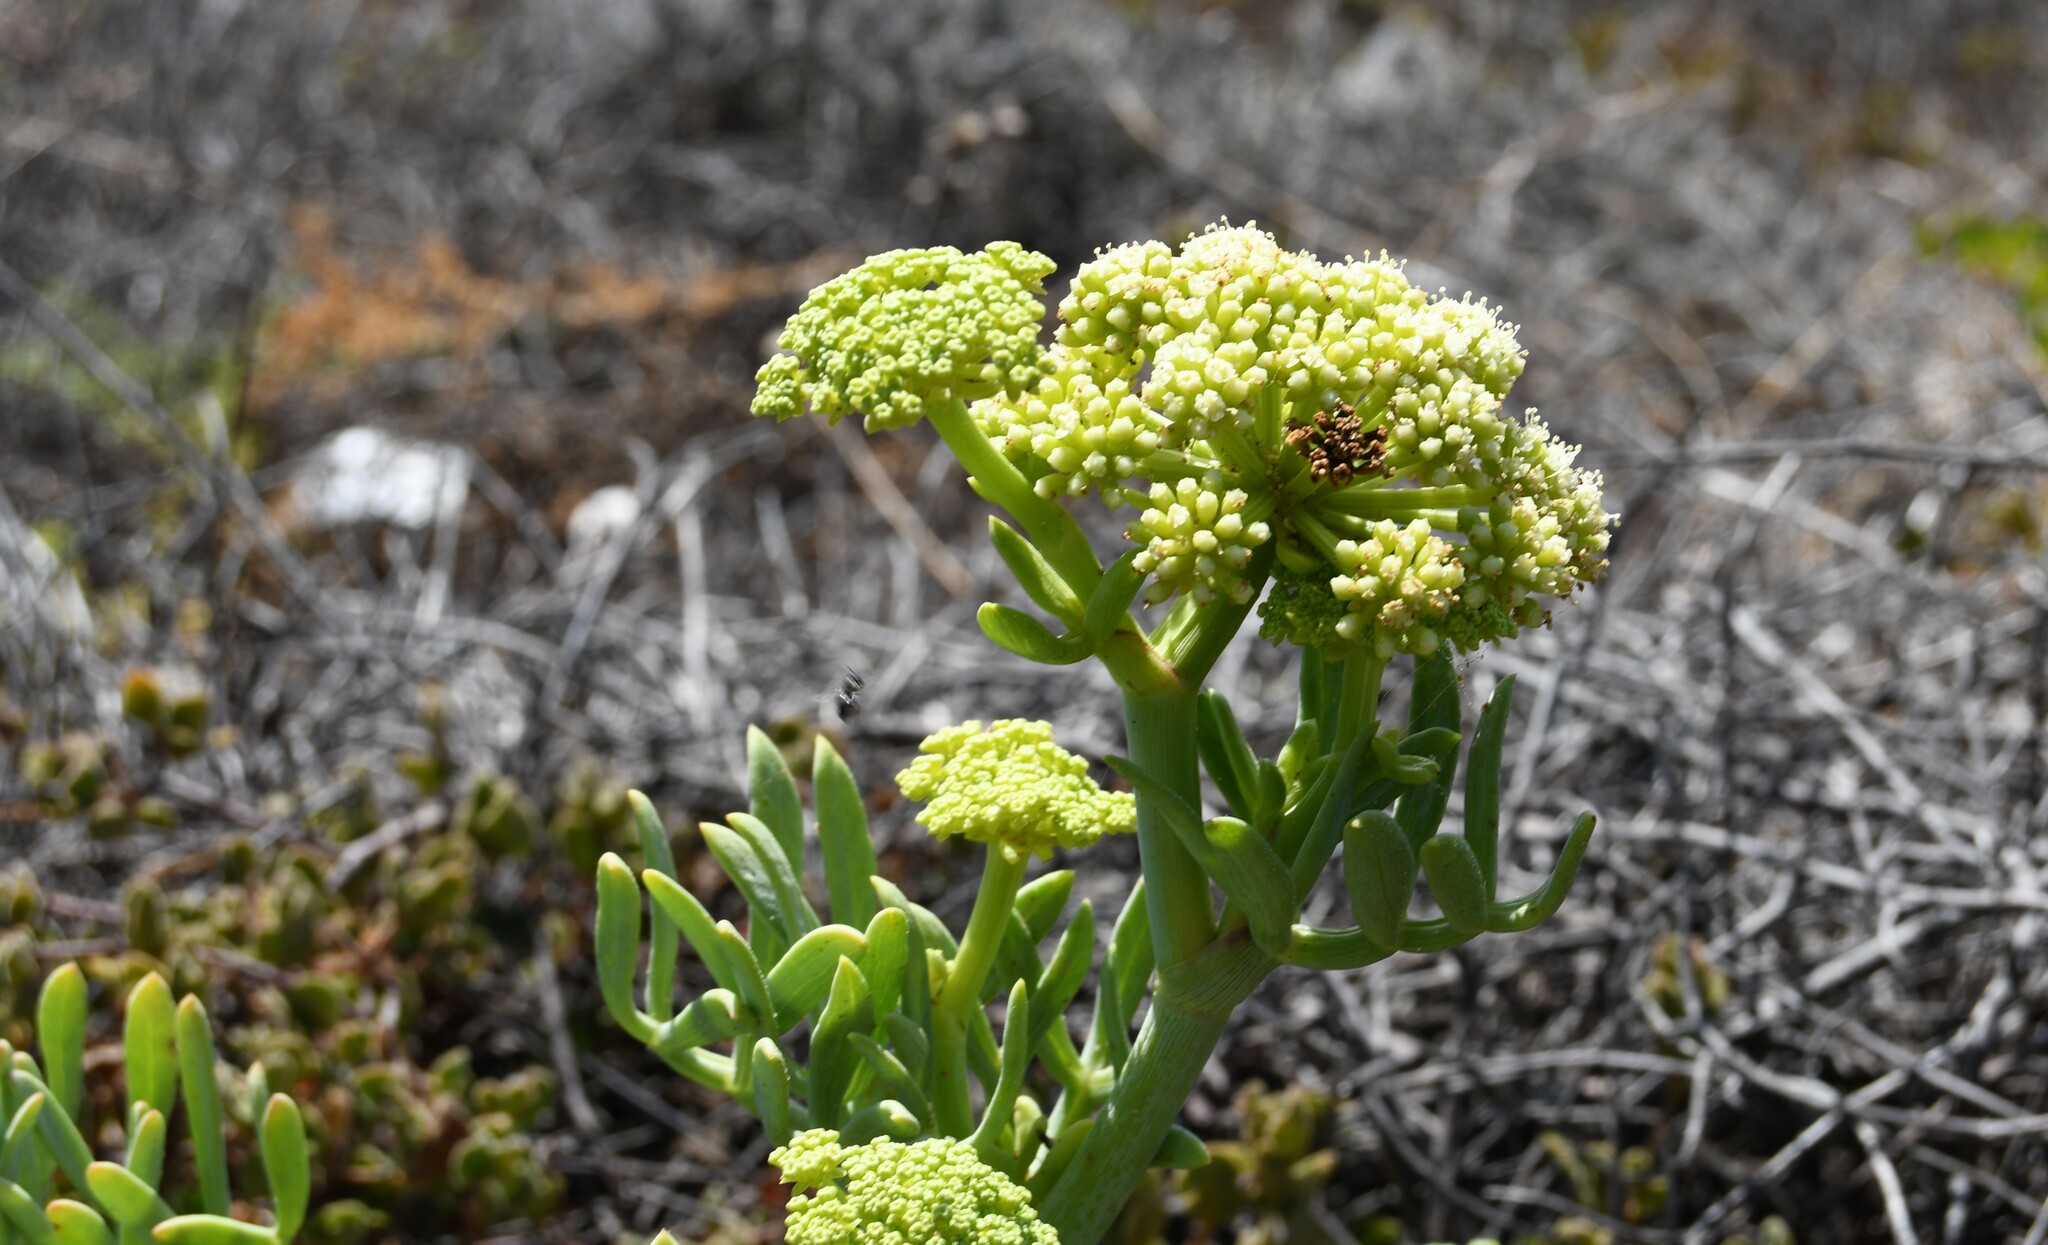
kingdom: Plantae
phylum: Tracheophyta
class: Magnoliopsida
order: Apiales
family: Apiaceae
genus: Crithmum
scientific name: Crithmum maritimum
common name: Rock samphire
